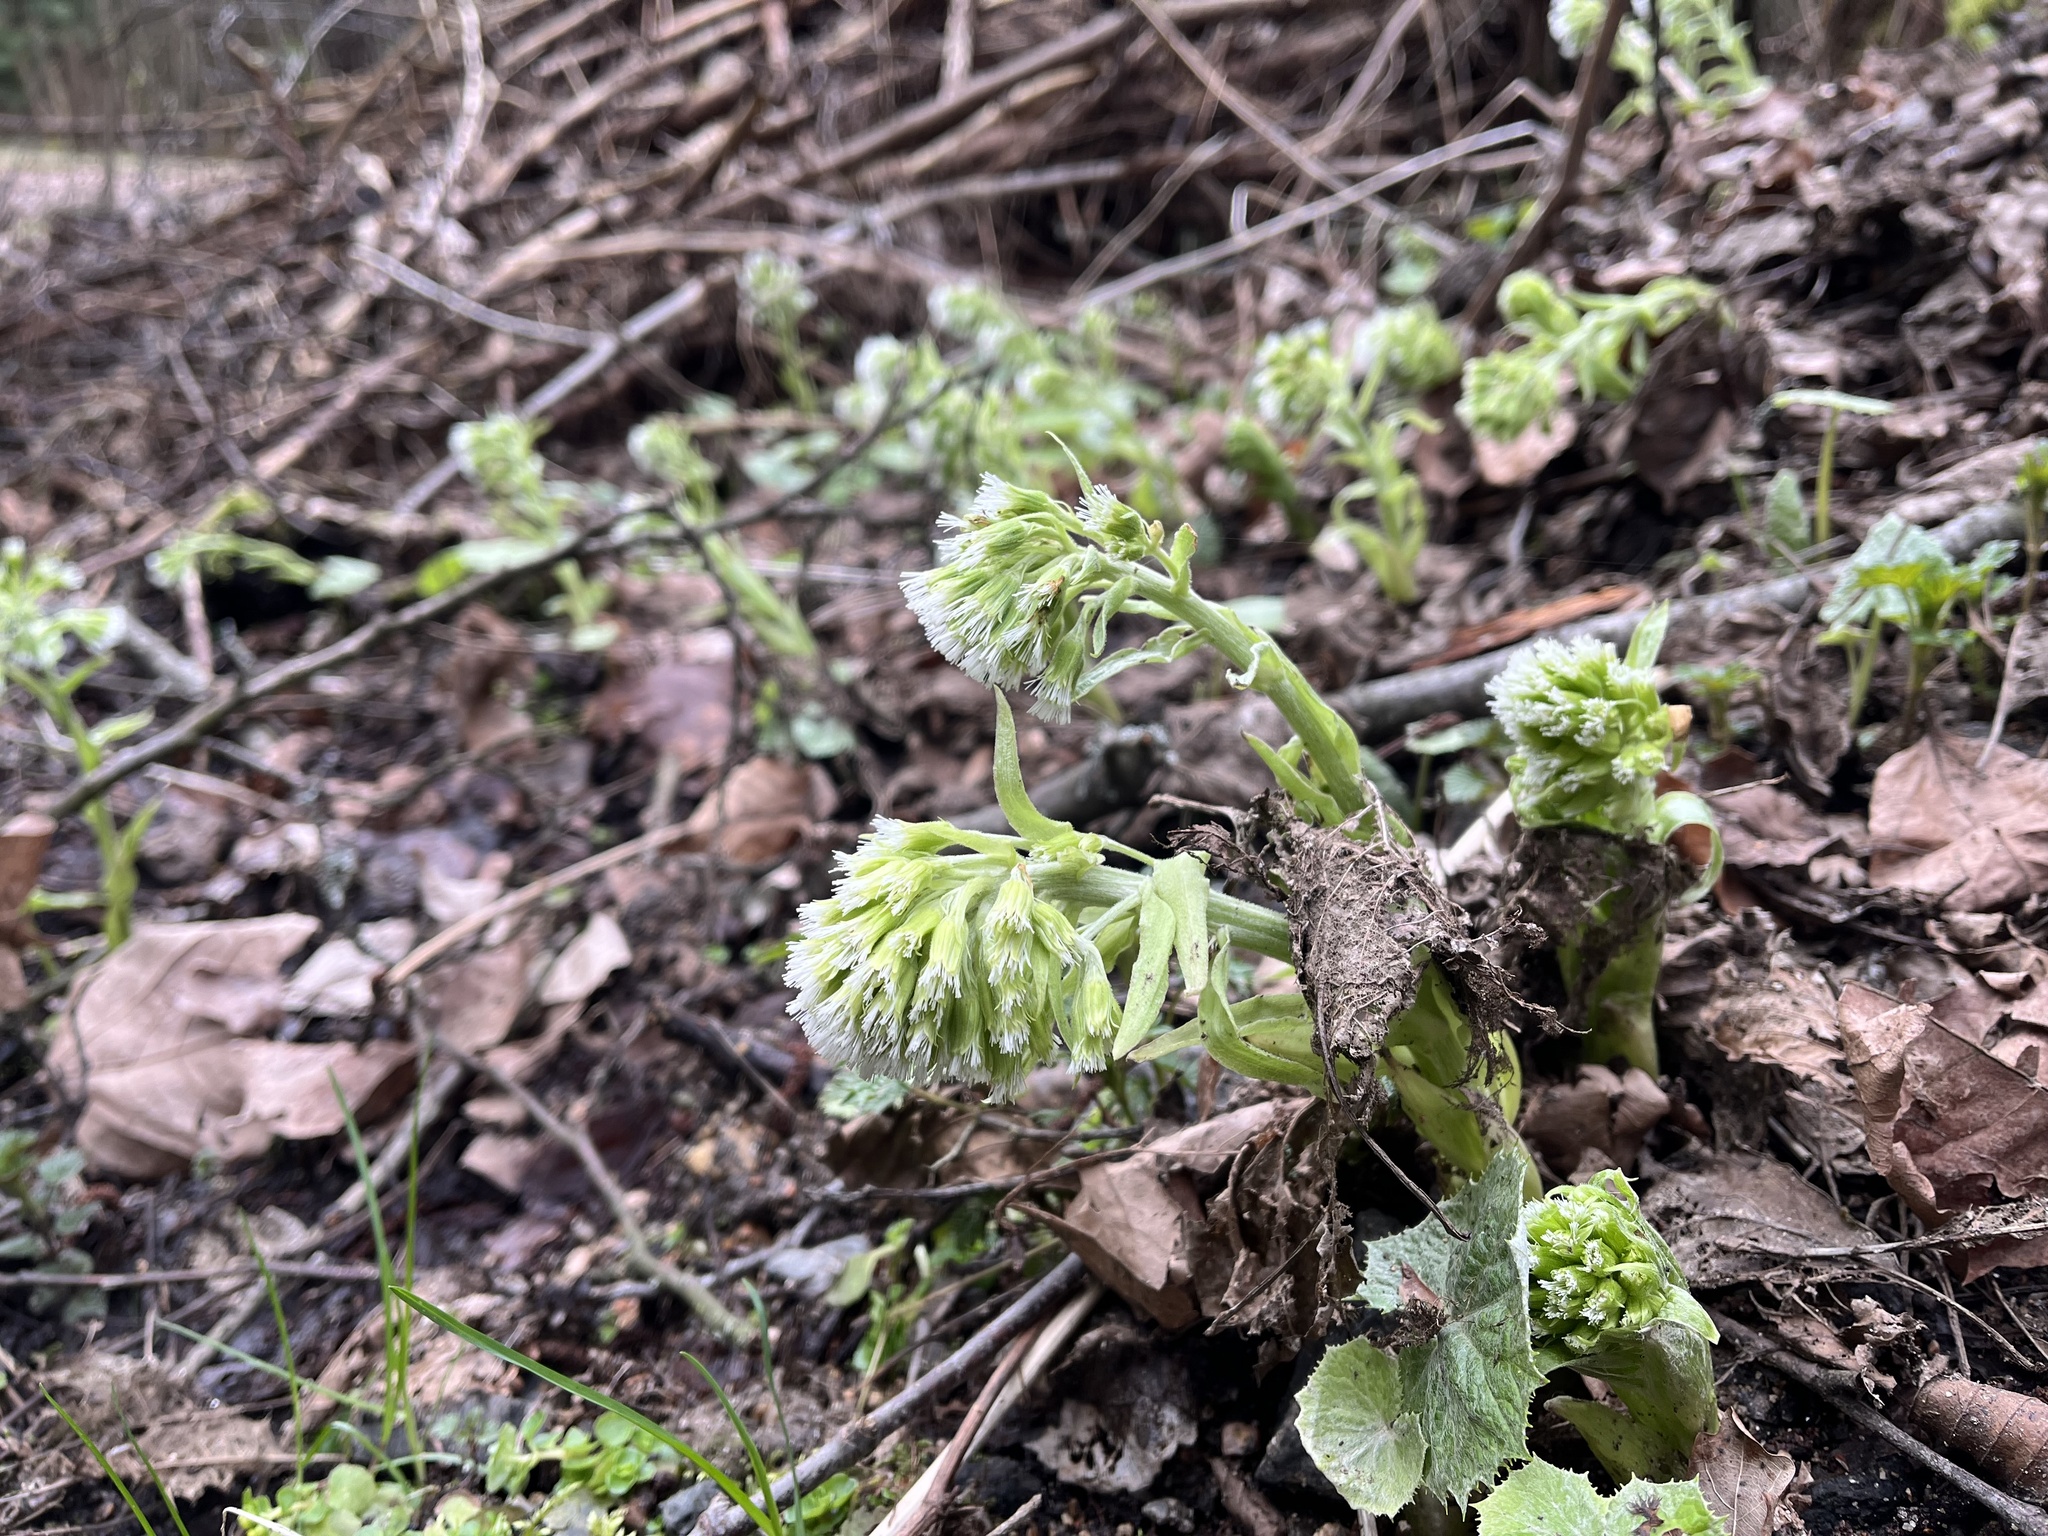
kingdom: Plantae
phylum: Tracheophyta
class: Magnoliopsida
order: Asterales
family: Asteraceae
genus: Petasites
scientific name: Petasites albus
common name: White butterbur
